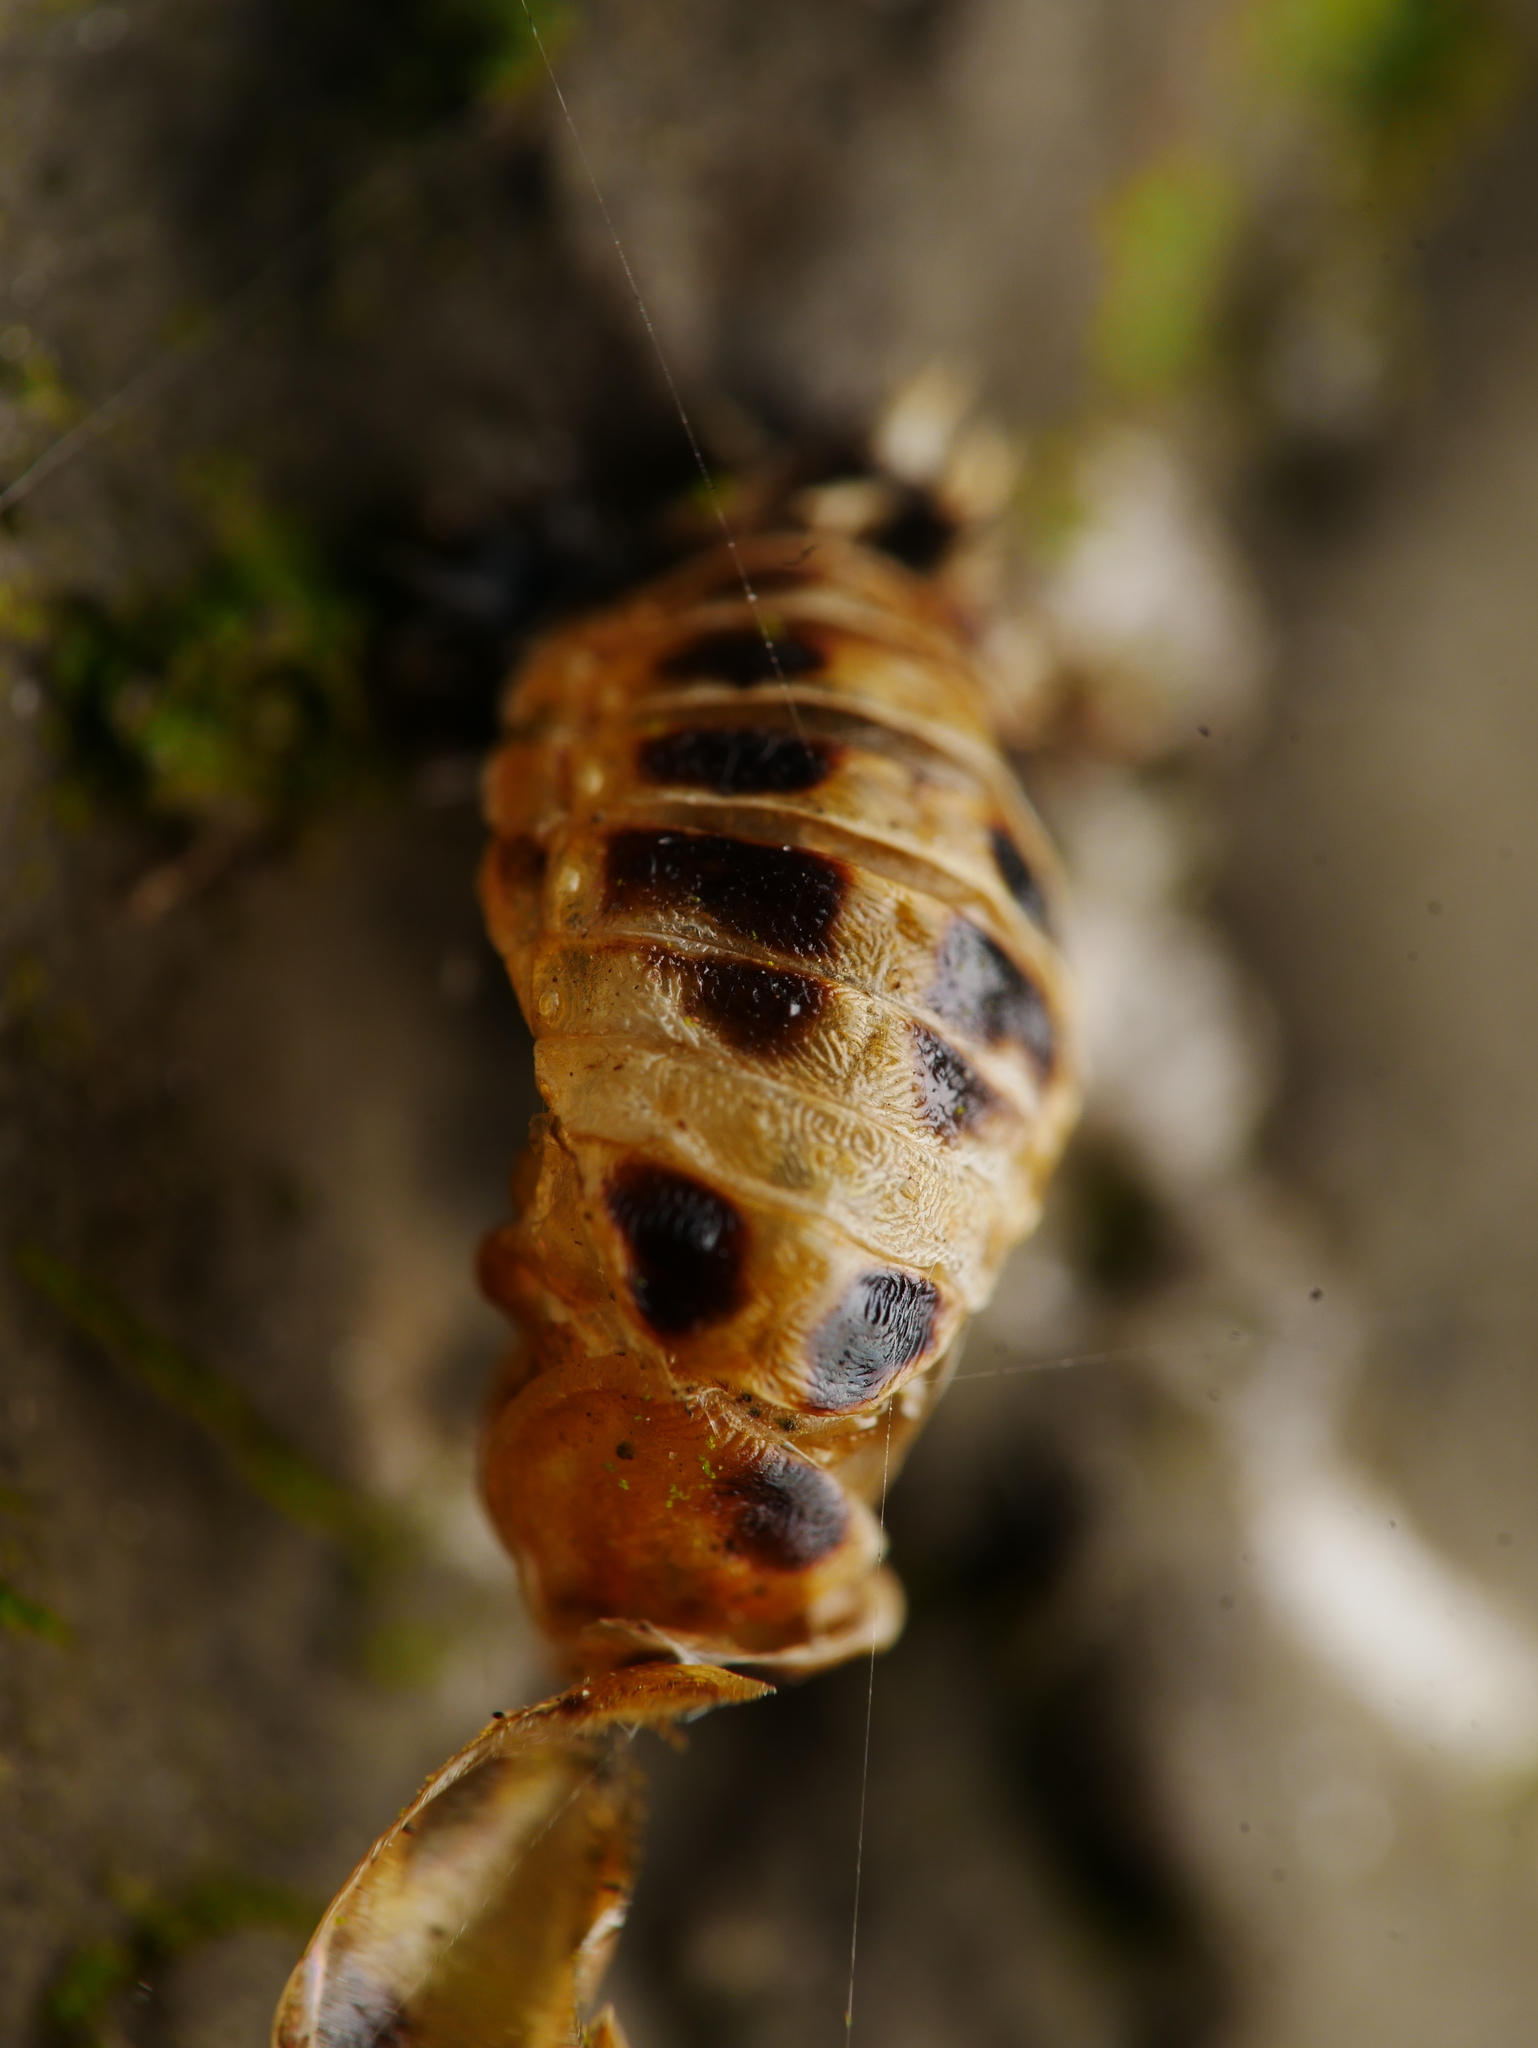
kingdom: Animalia
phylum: Arthropoda
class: Insecta
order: Coleoptera
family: Coccinellidae
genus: Harmonia
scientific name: Harmonia axyridis
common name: Harlequin ladybird
